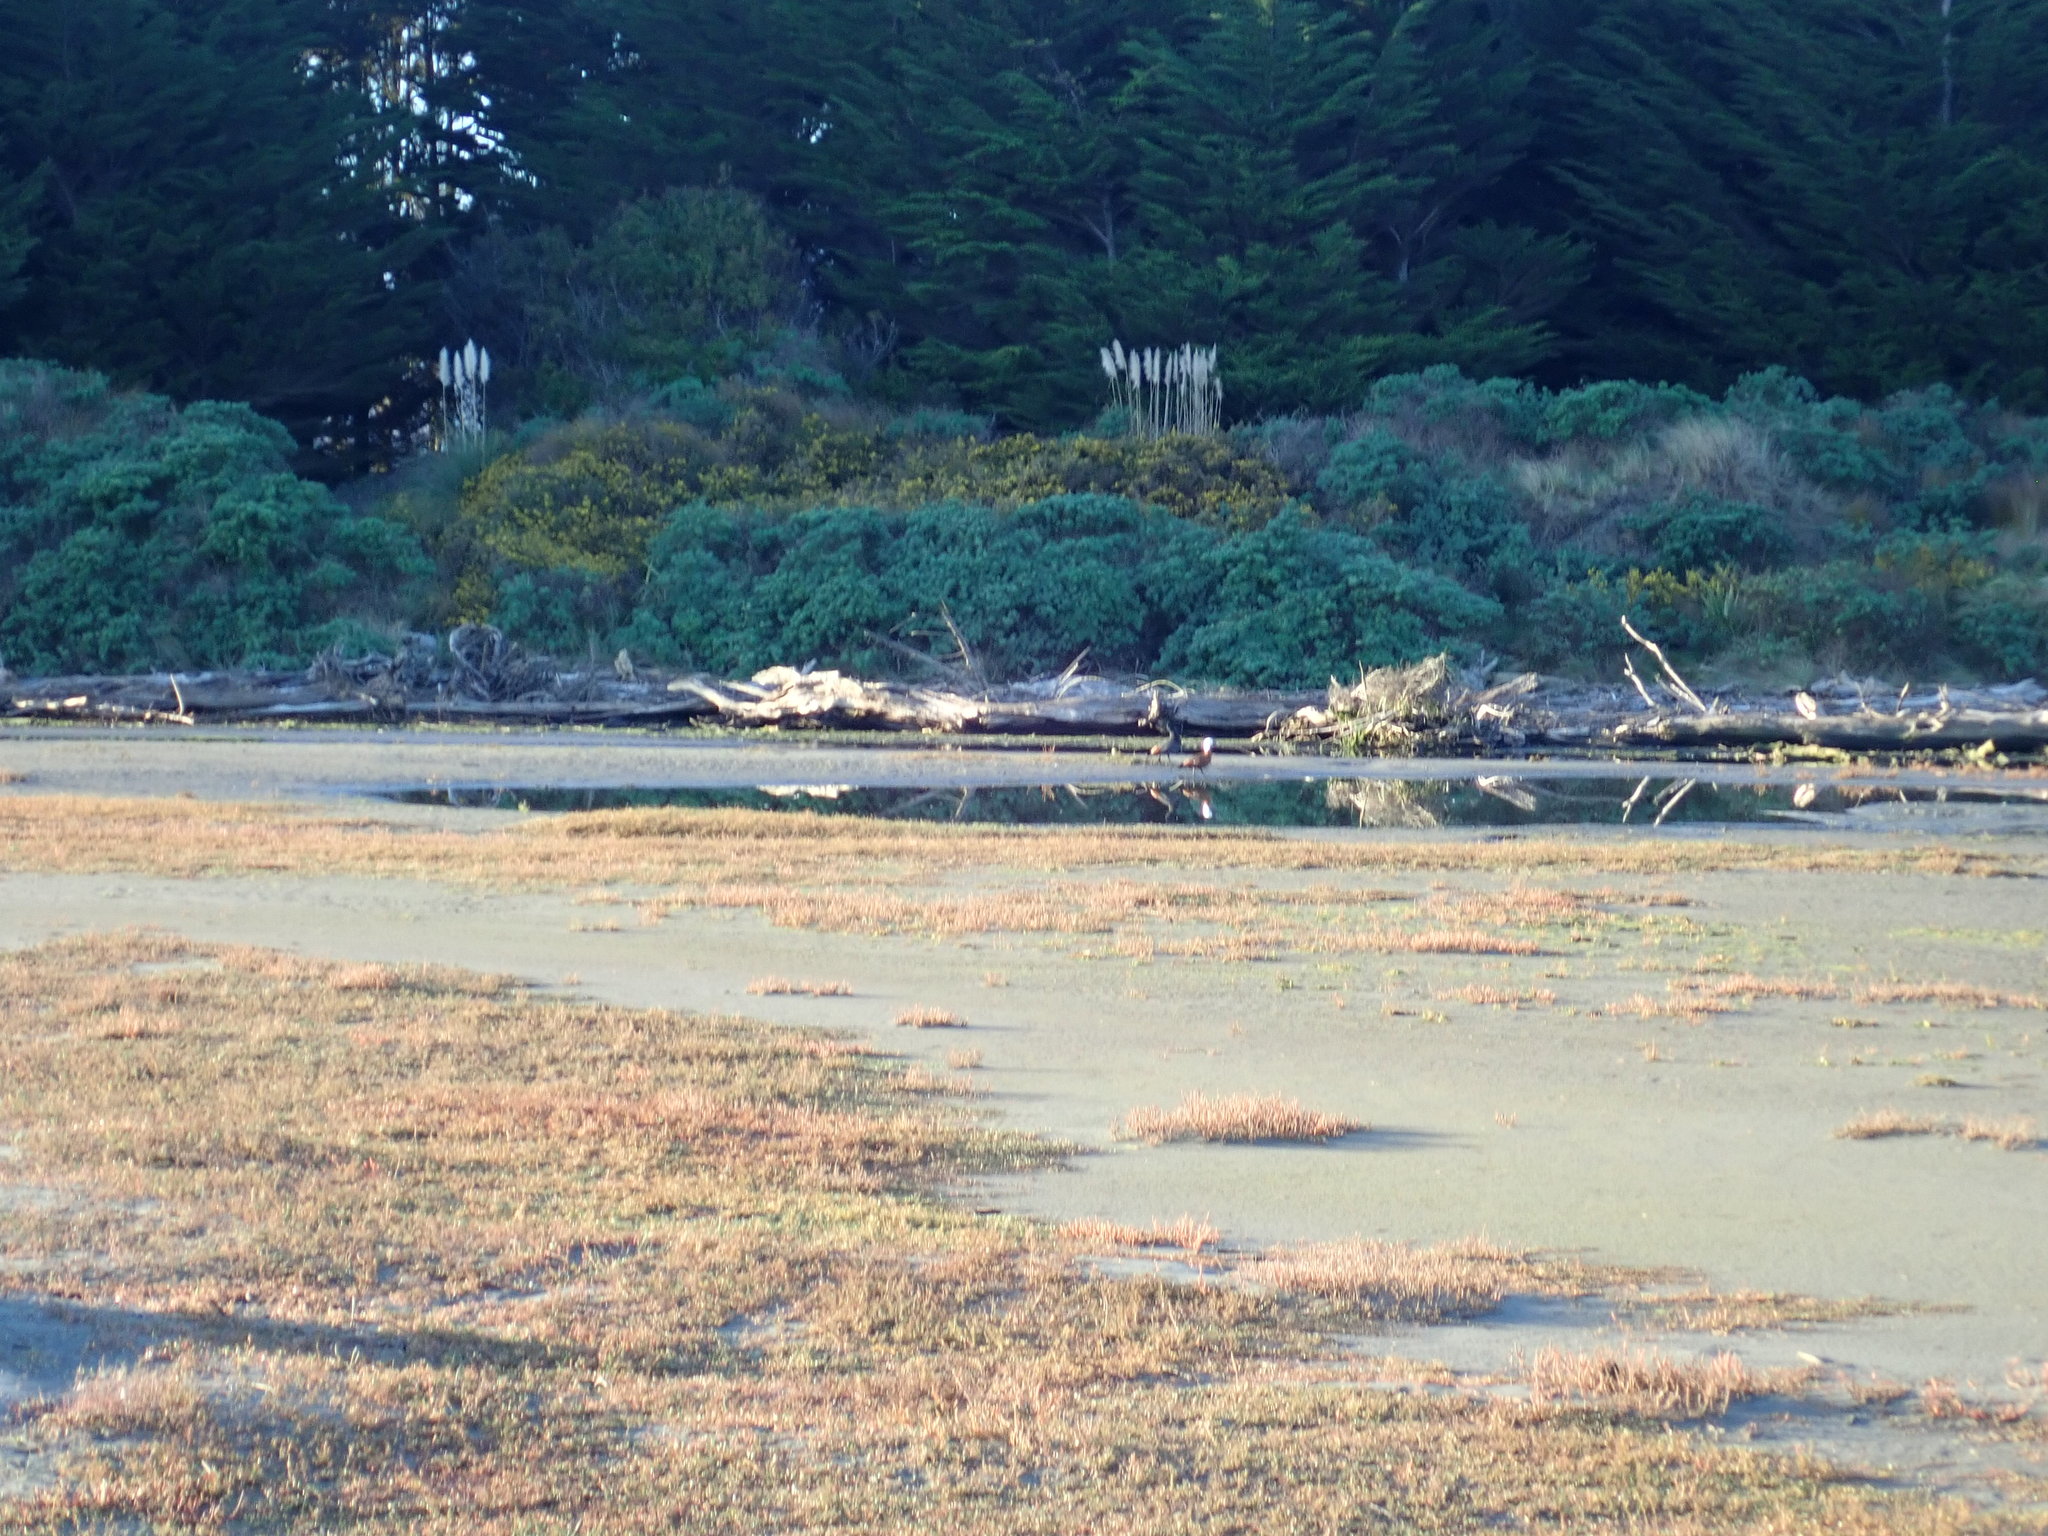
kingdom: Animalia
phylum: Chordata
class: Aves
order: Anseriformes
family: Anatidae
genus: Tadorna
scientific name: Tadorna variegata
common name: Paradise shelduck
